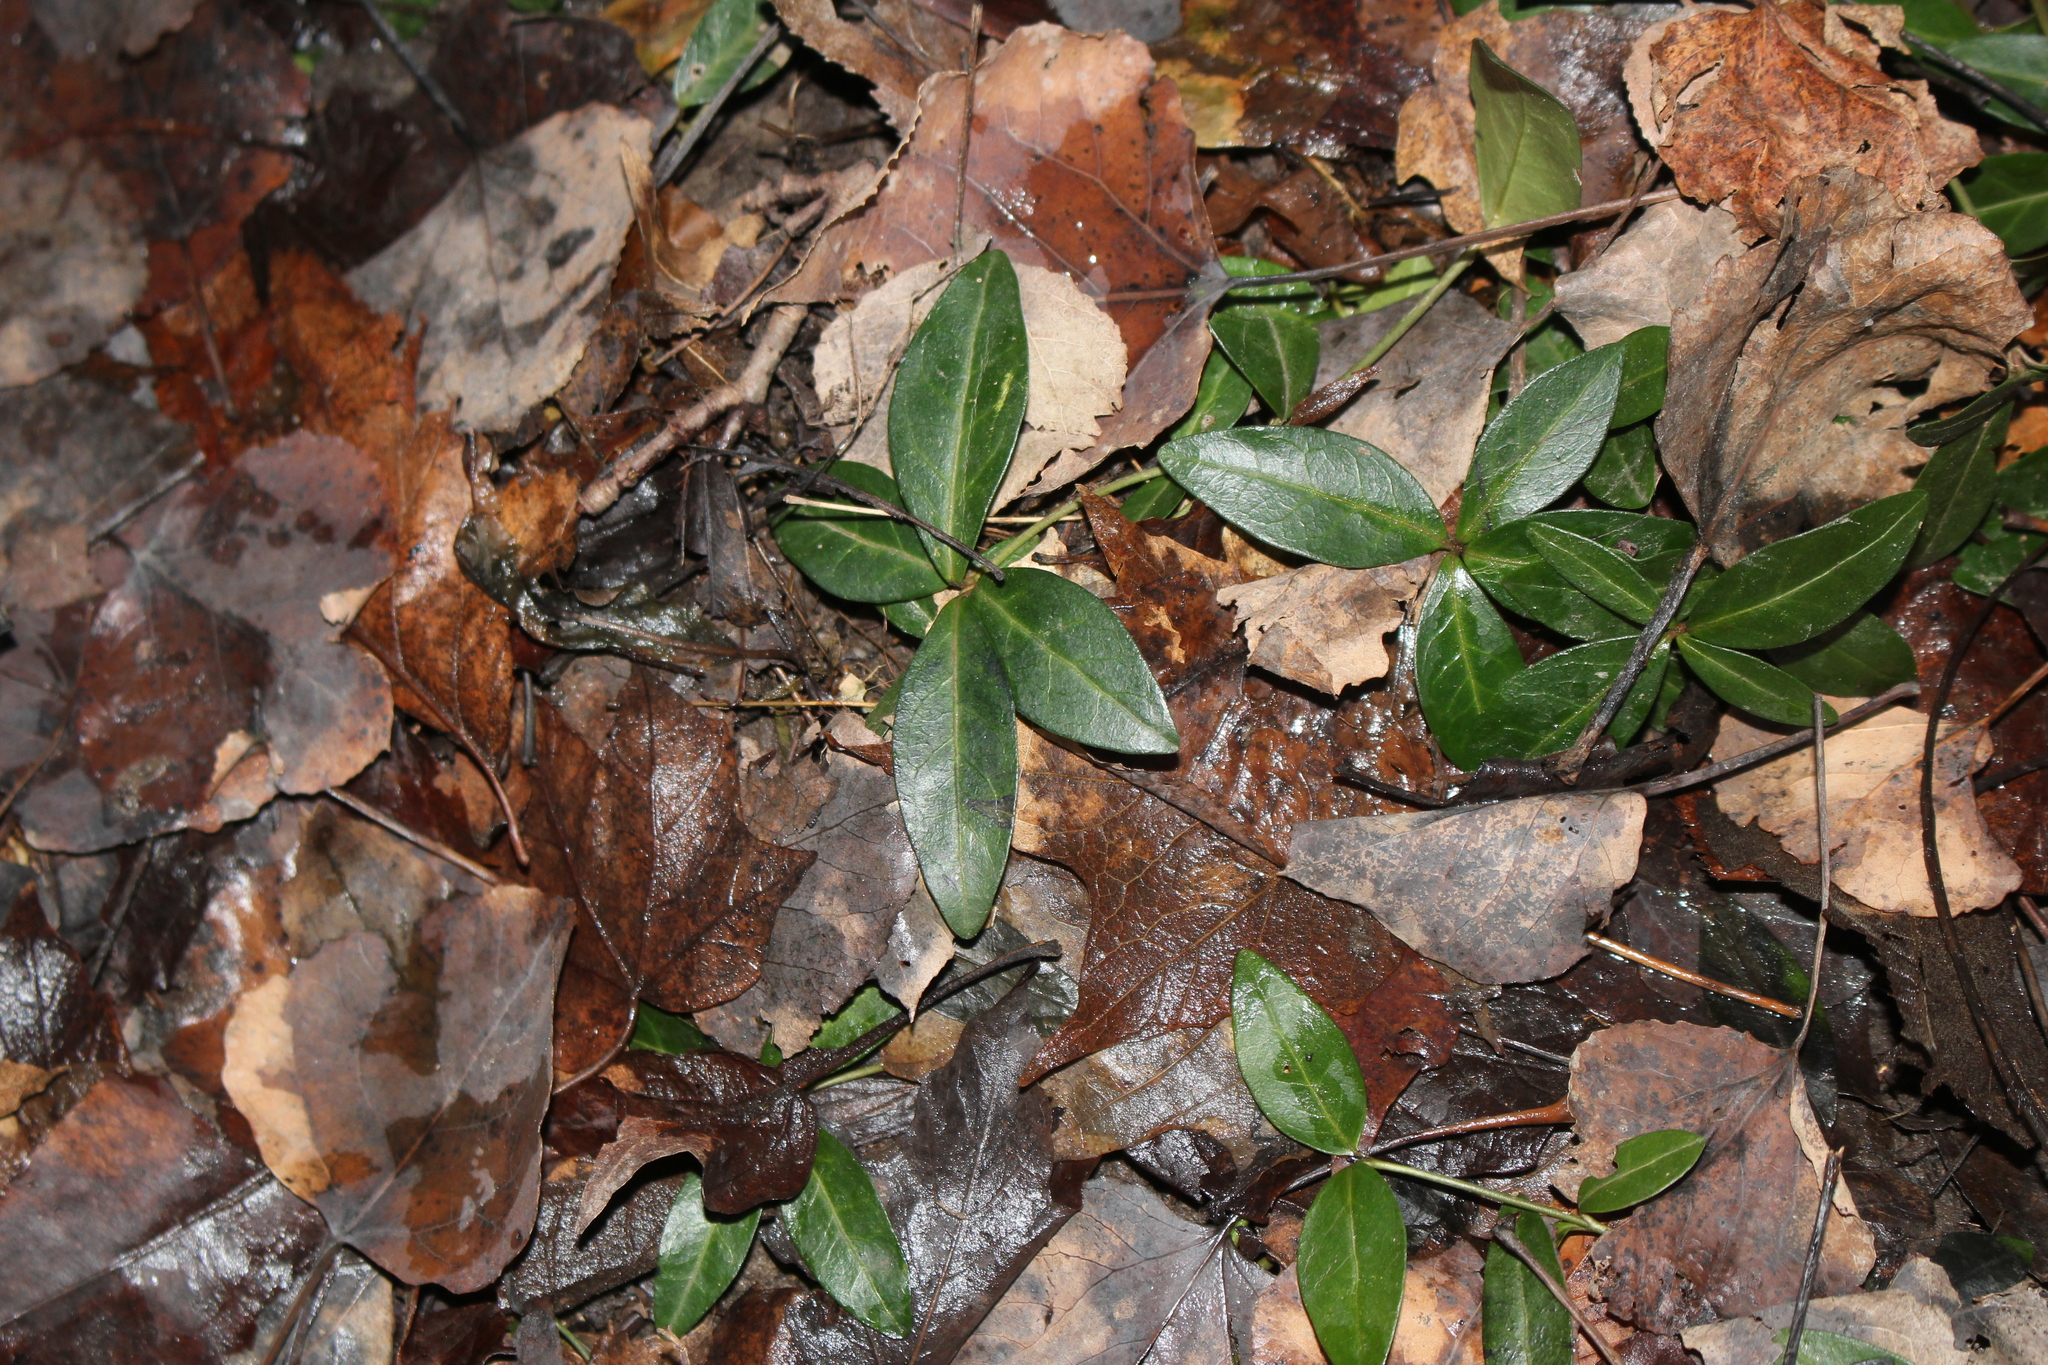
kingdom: Plantae
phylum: Tracheophyta
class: Magnoliopsida
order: Gentianales
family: Apocynaceae
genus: Vinca
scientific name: Vinca minor
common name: Lesser periwinkle
